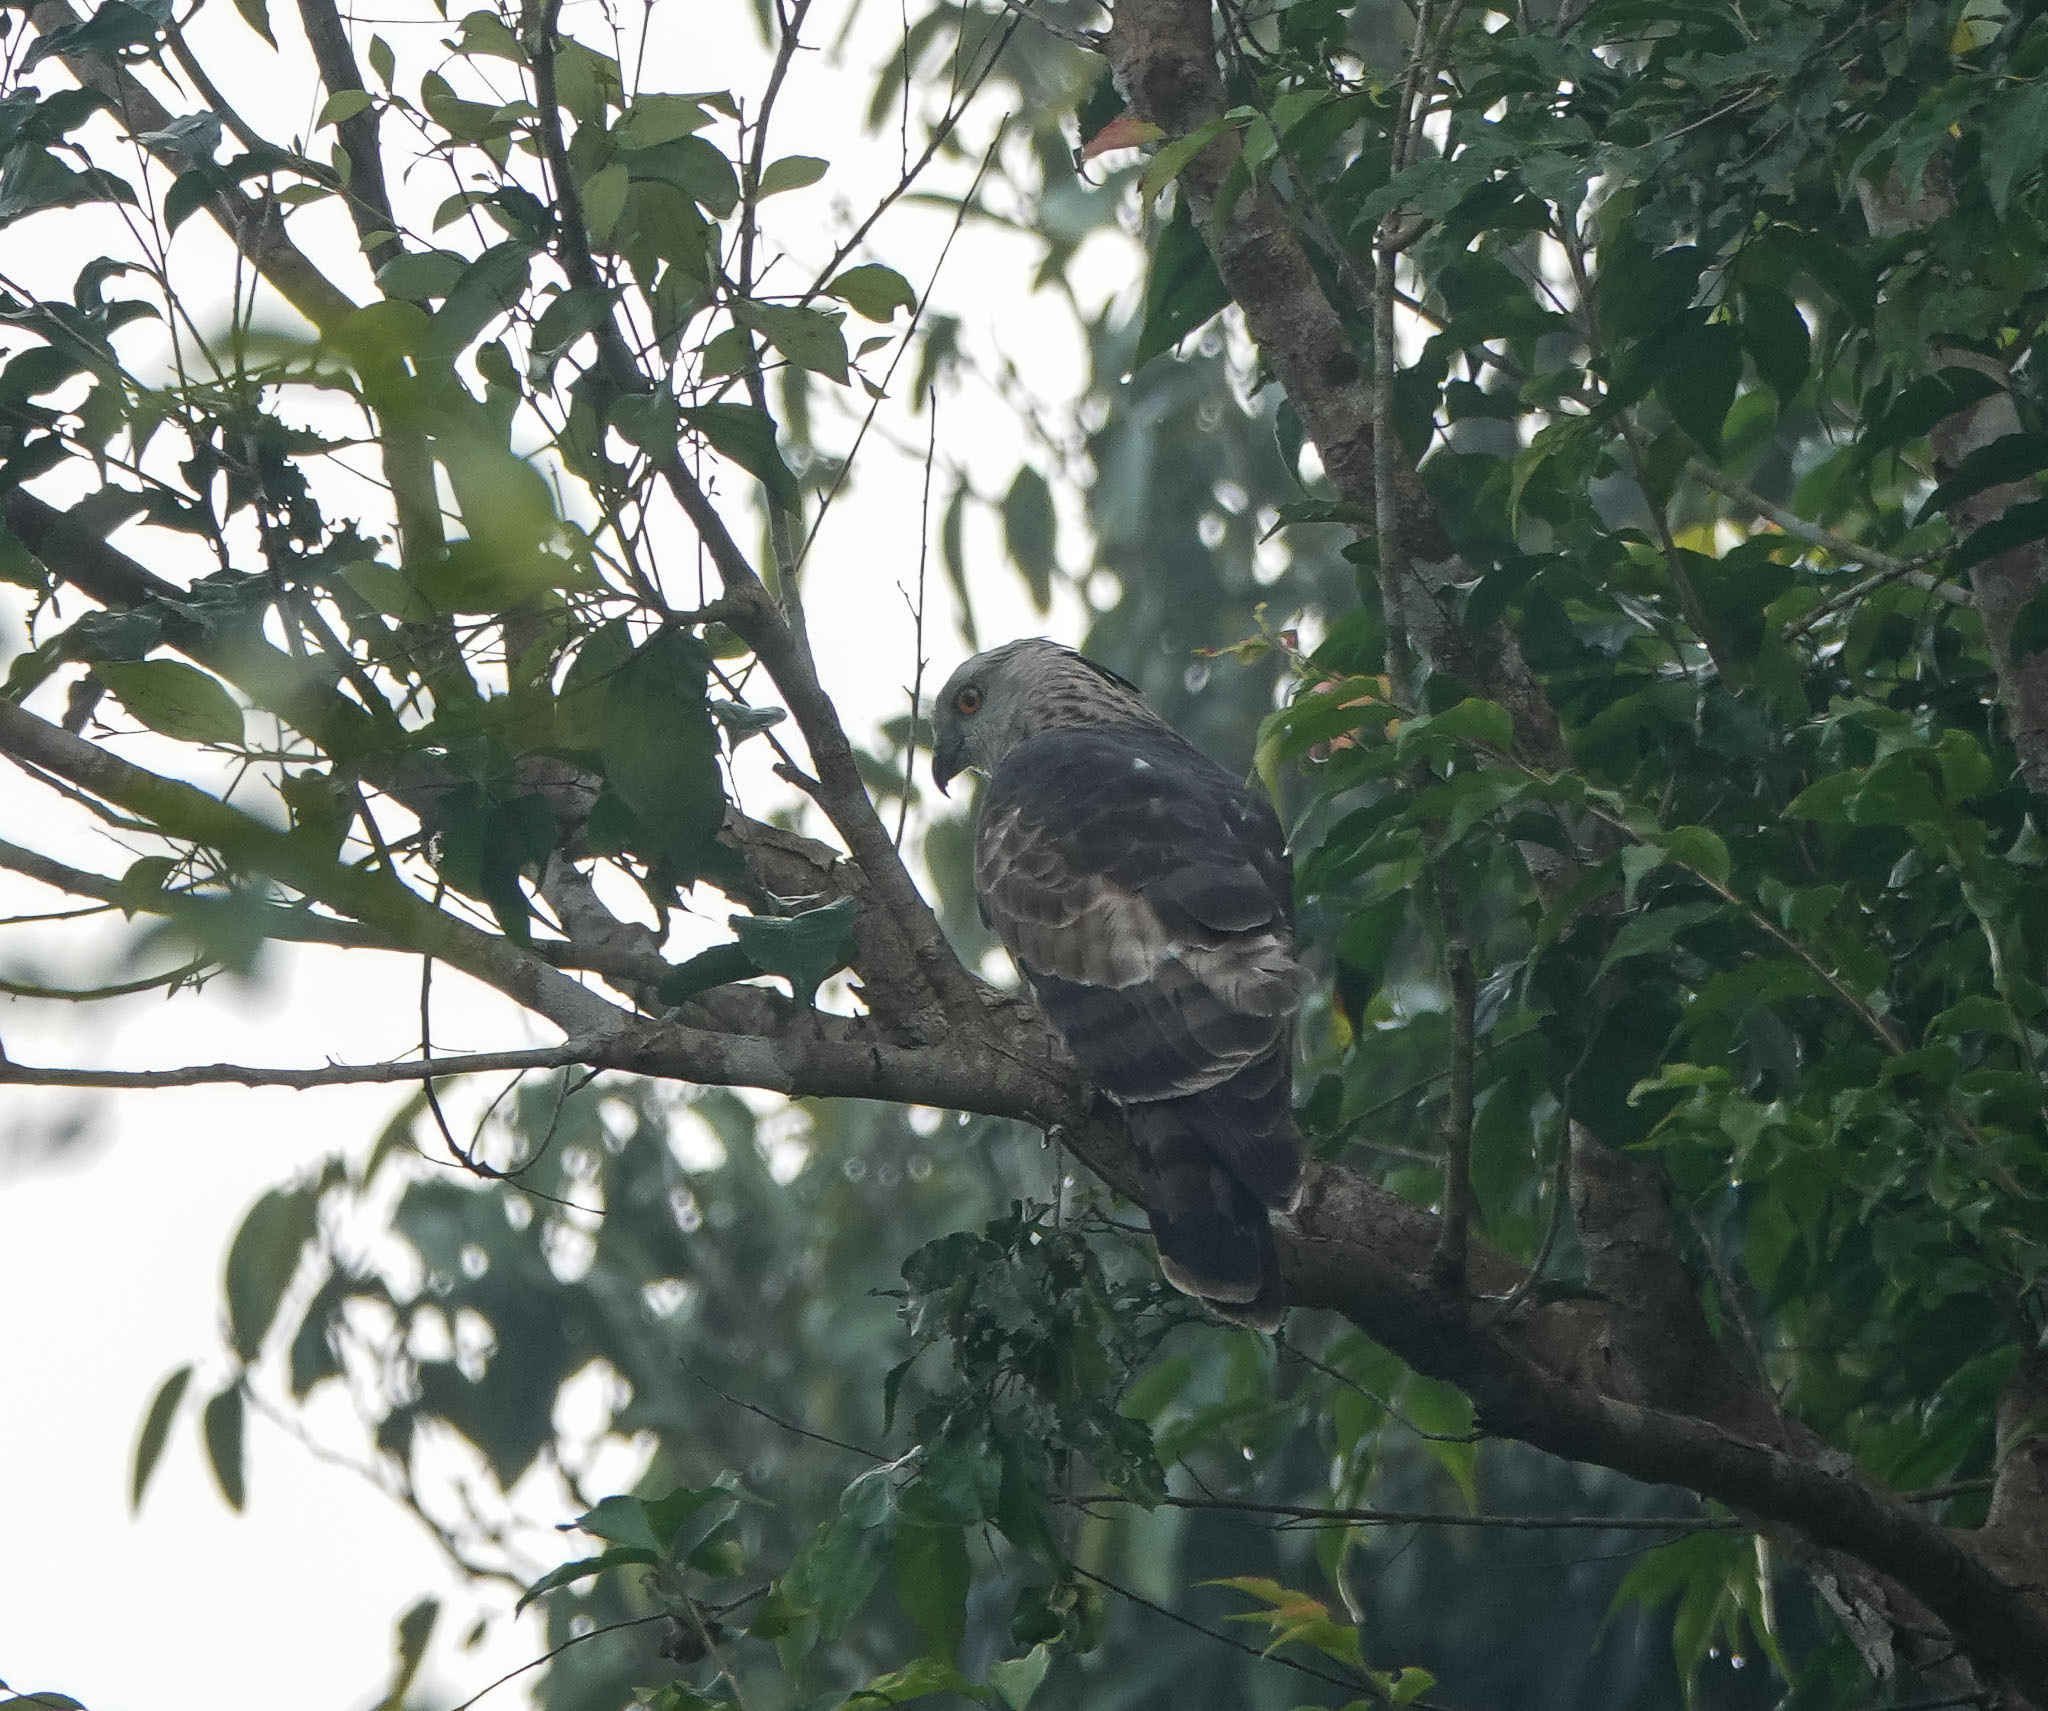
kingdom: Animalia
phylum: Chordata
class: Aves
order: Accipitriformes
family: Accipitridae
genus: Aviceda
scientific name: Aviceda jerdoni
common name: Jerdon's baza
